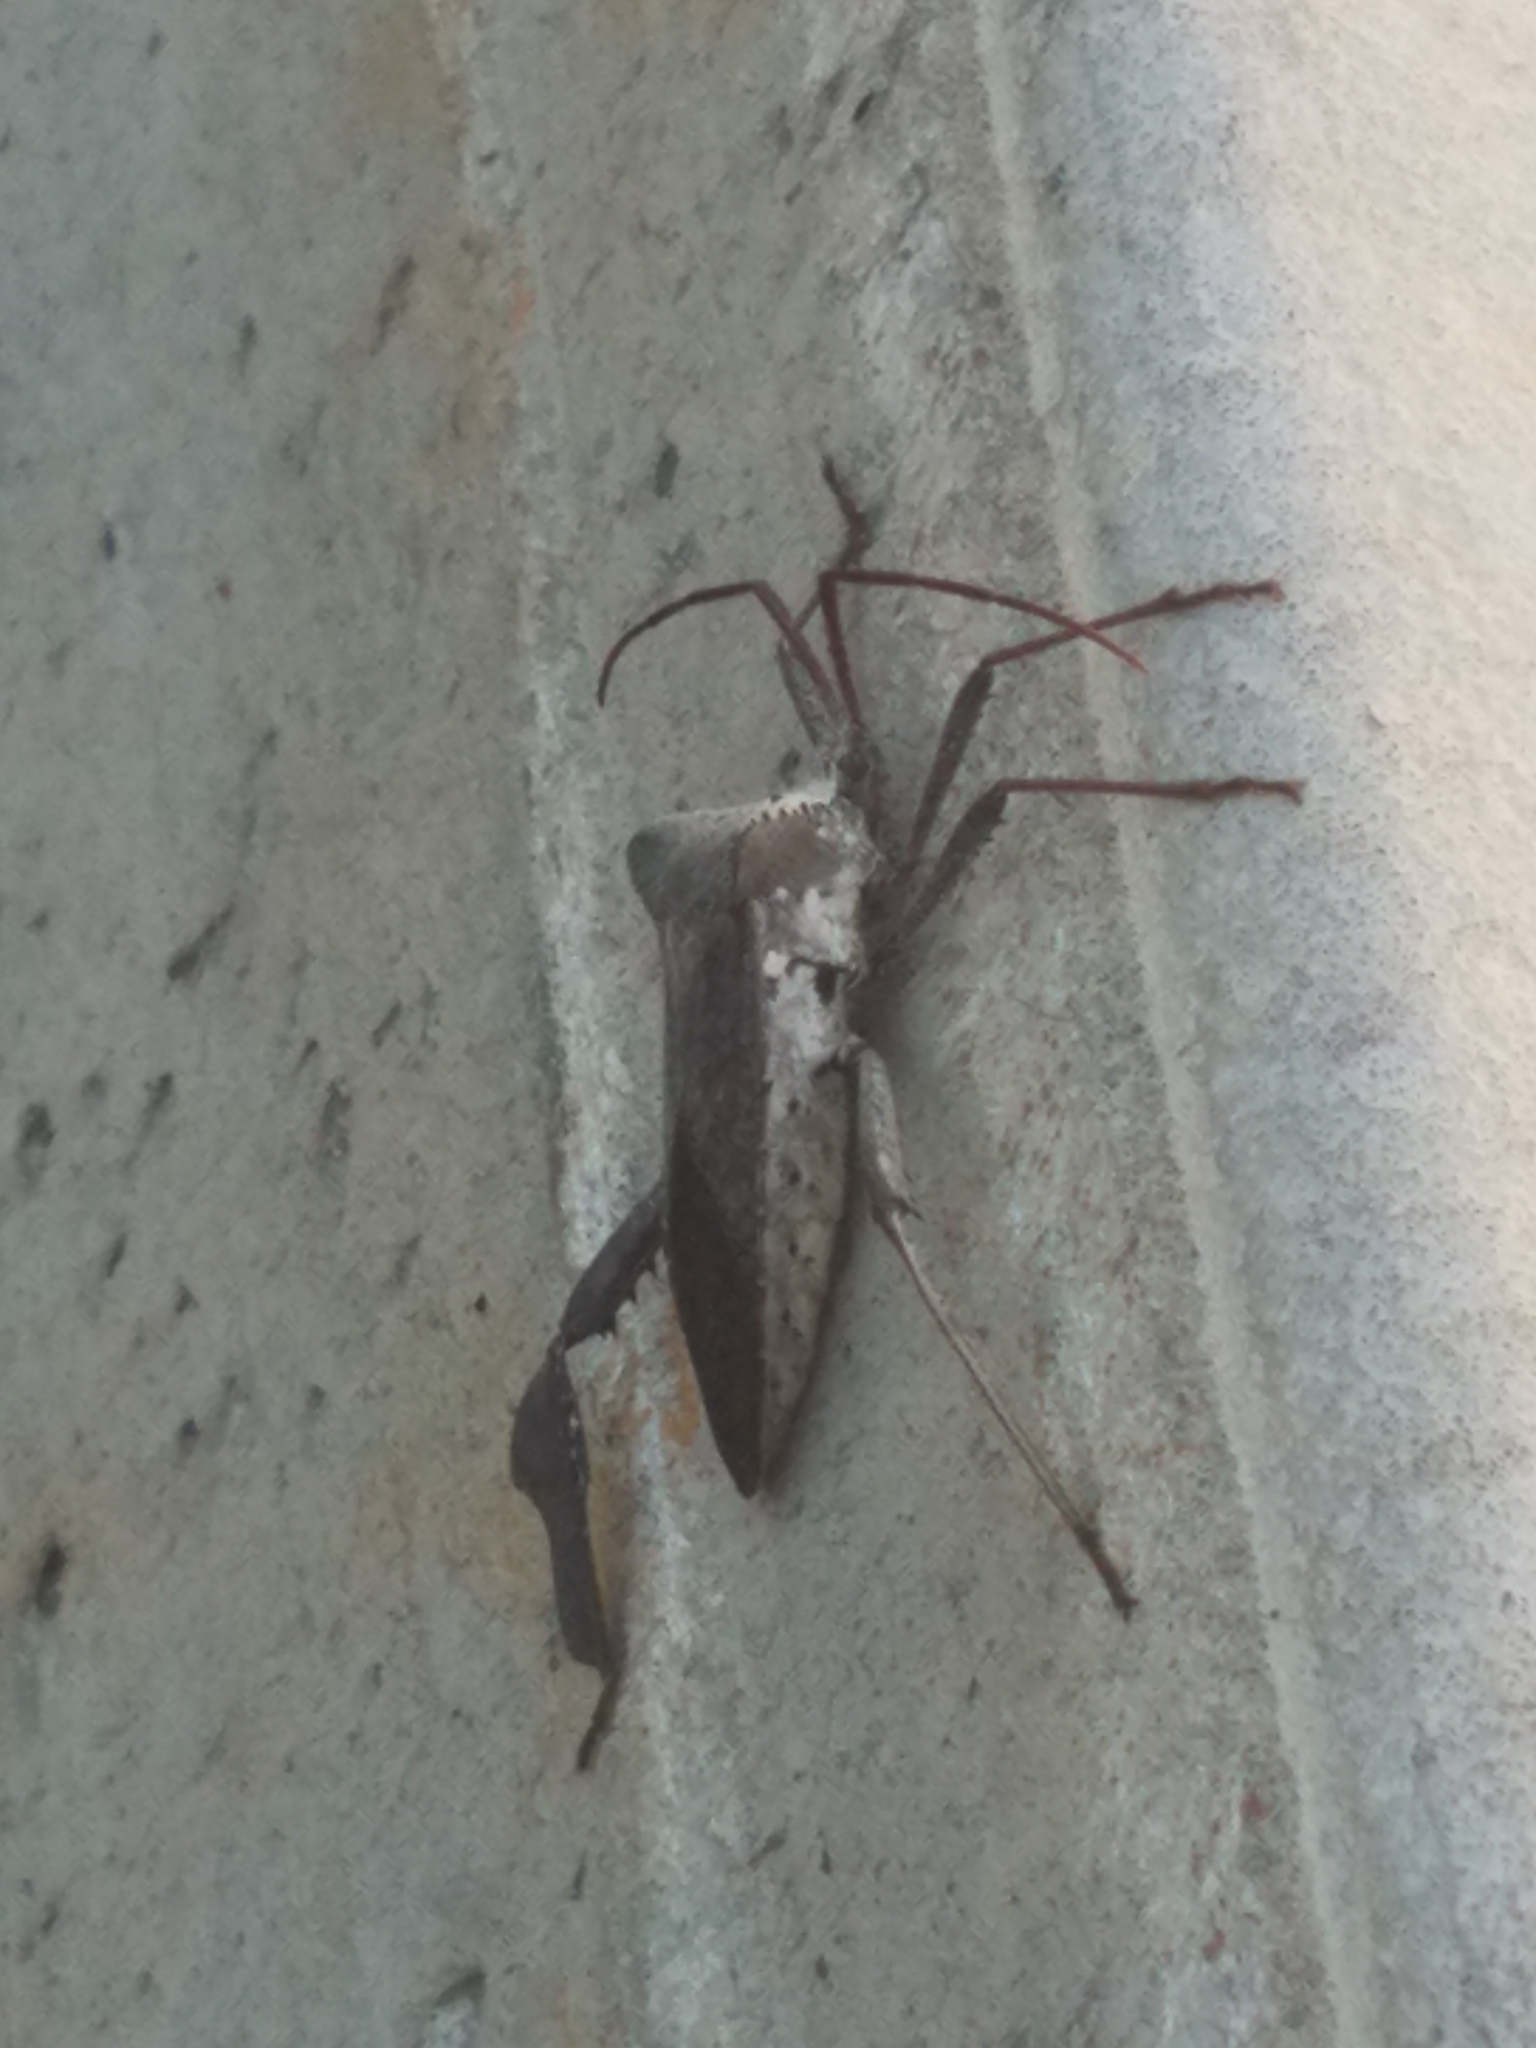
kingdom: Animalia
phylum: Arthropoda
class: Insecta
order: Hemiptera
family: Coreidae
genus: Acanthocephala
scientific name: Acanthocephala declivis
